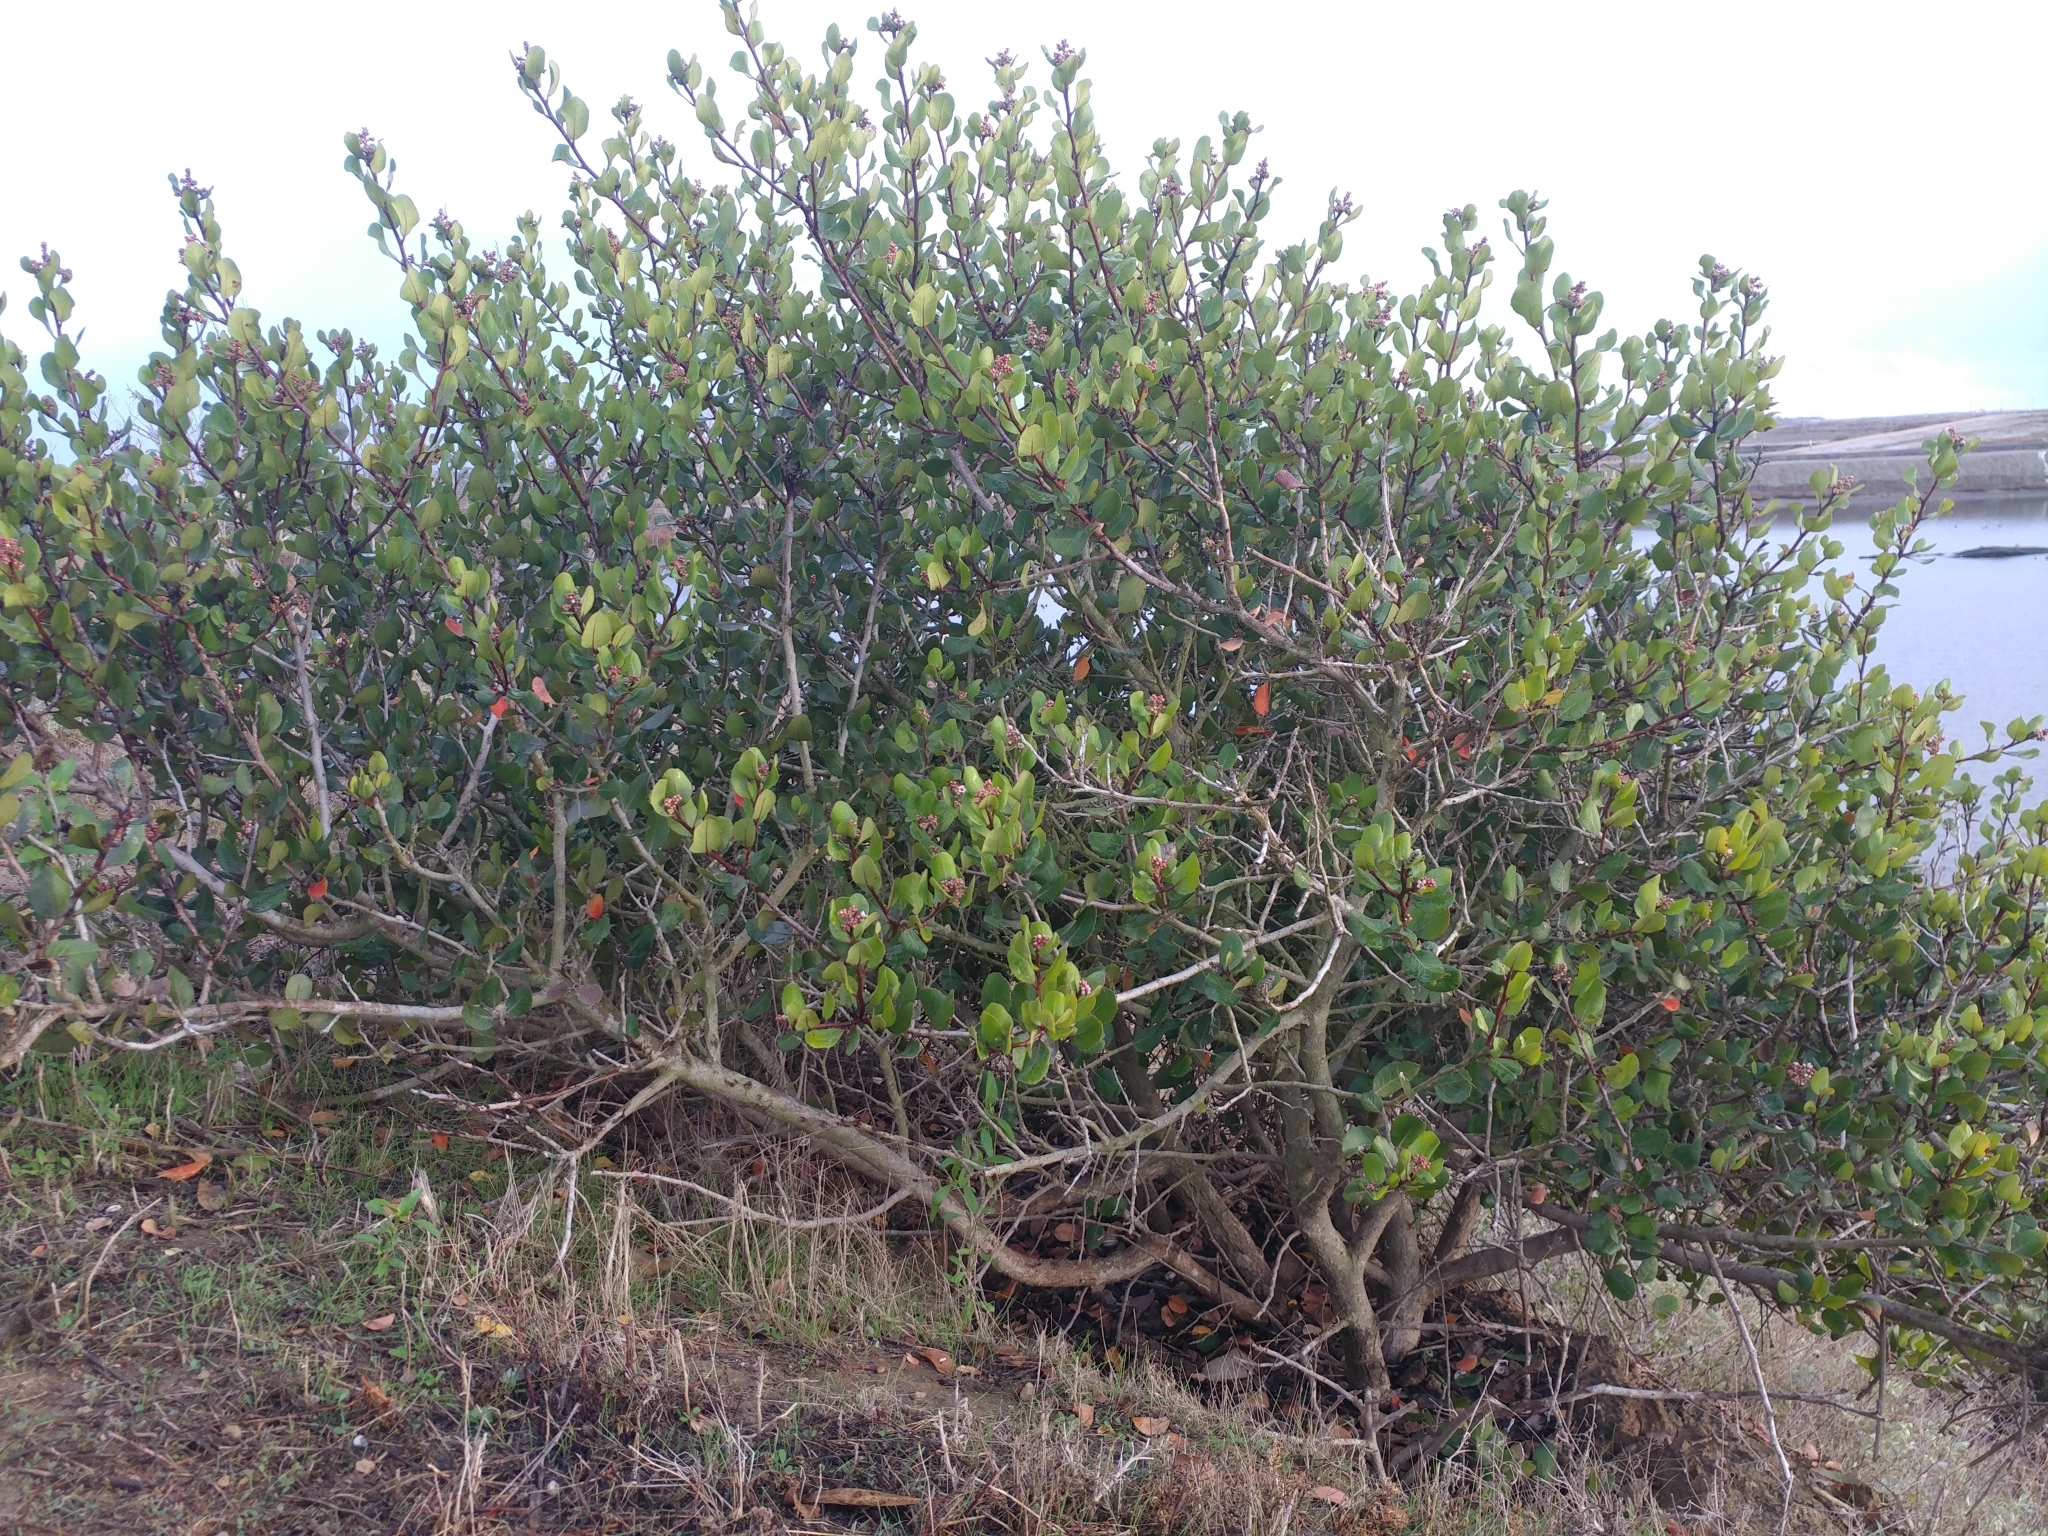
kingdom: Plantae
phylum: Tracheophyta
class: Magnoliopsida
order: Sapindales
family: Anacardiaceae
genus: Rhus
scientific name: Rhus integrifolia
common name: Lemonade sumac
